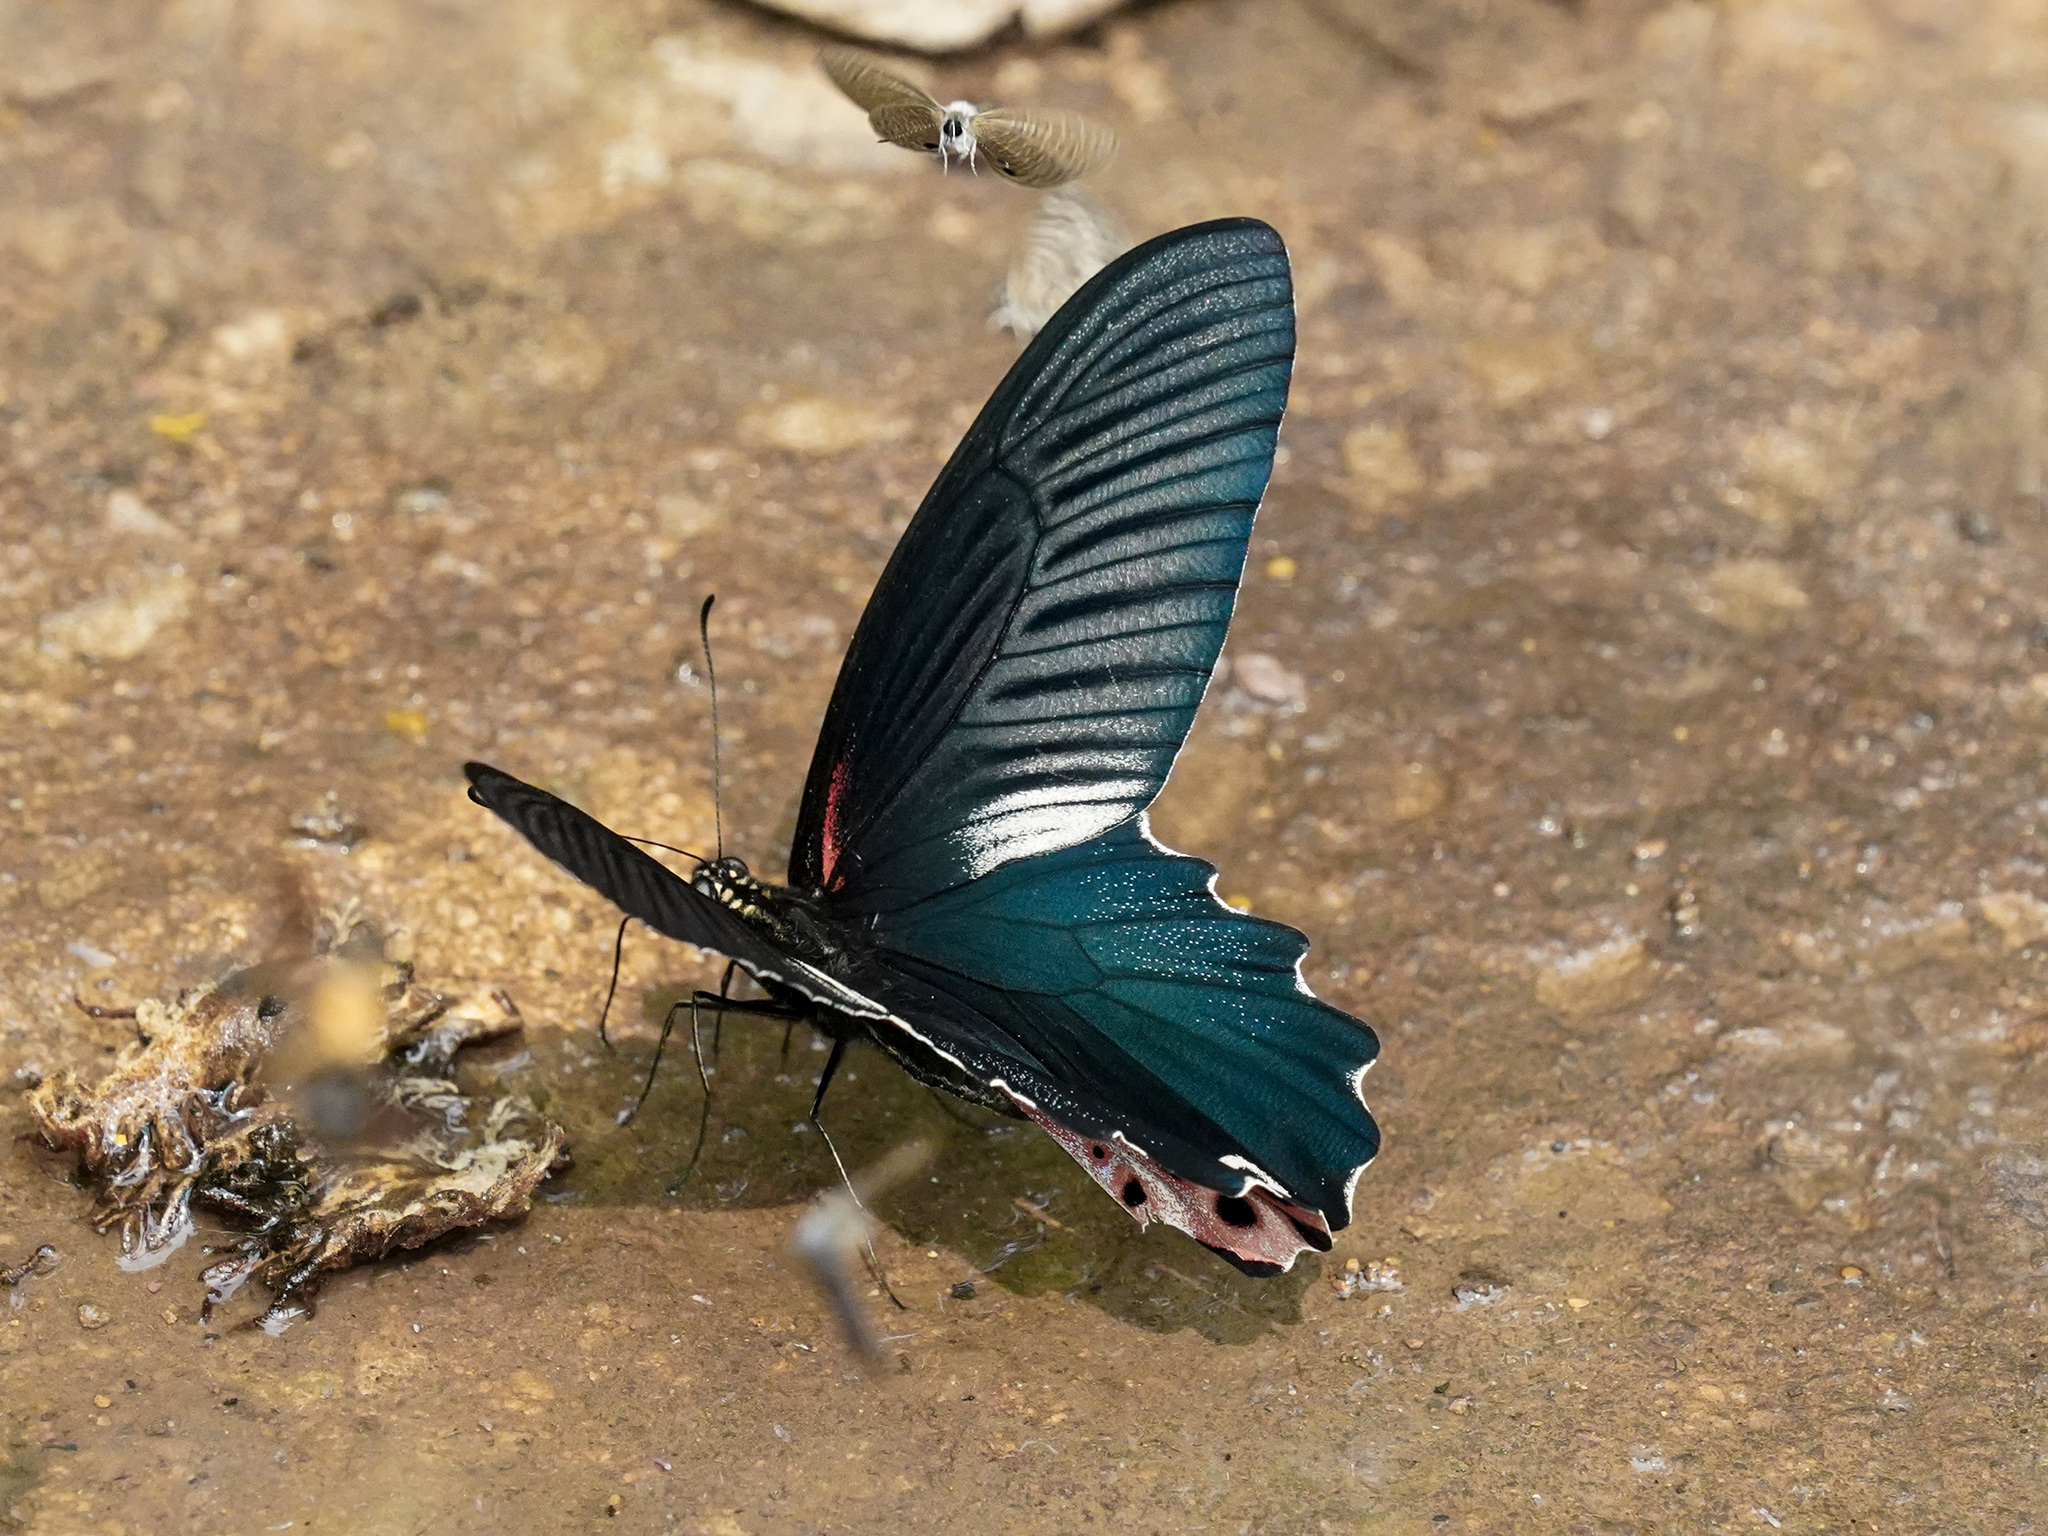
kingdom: Animalia
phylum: Arthropoda
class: Insecta
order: Lepidoptera
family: Papilionidae
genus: Papilio
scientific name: Papilio alcmenor
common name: Redbreast
